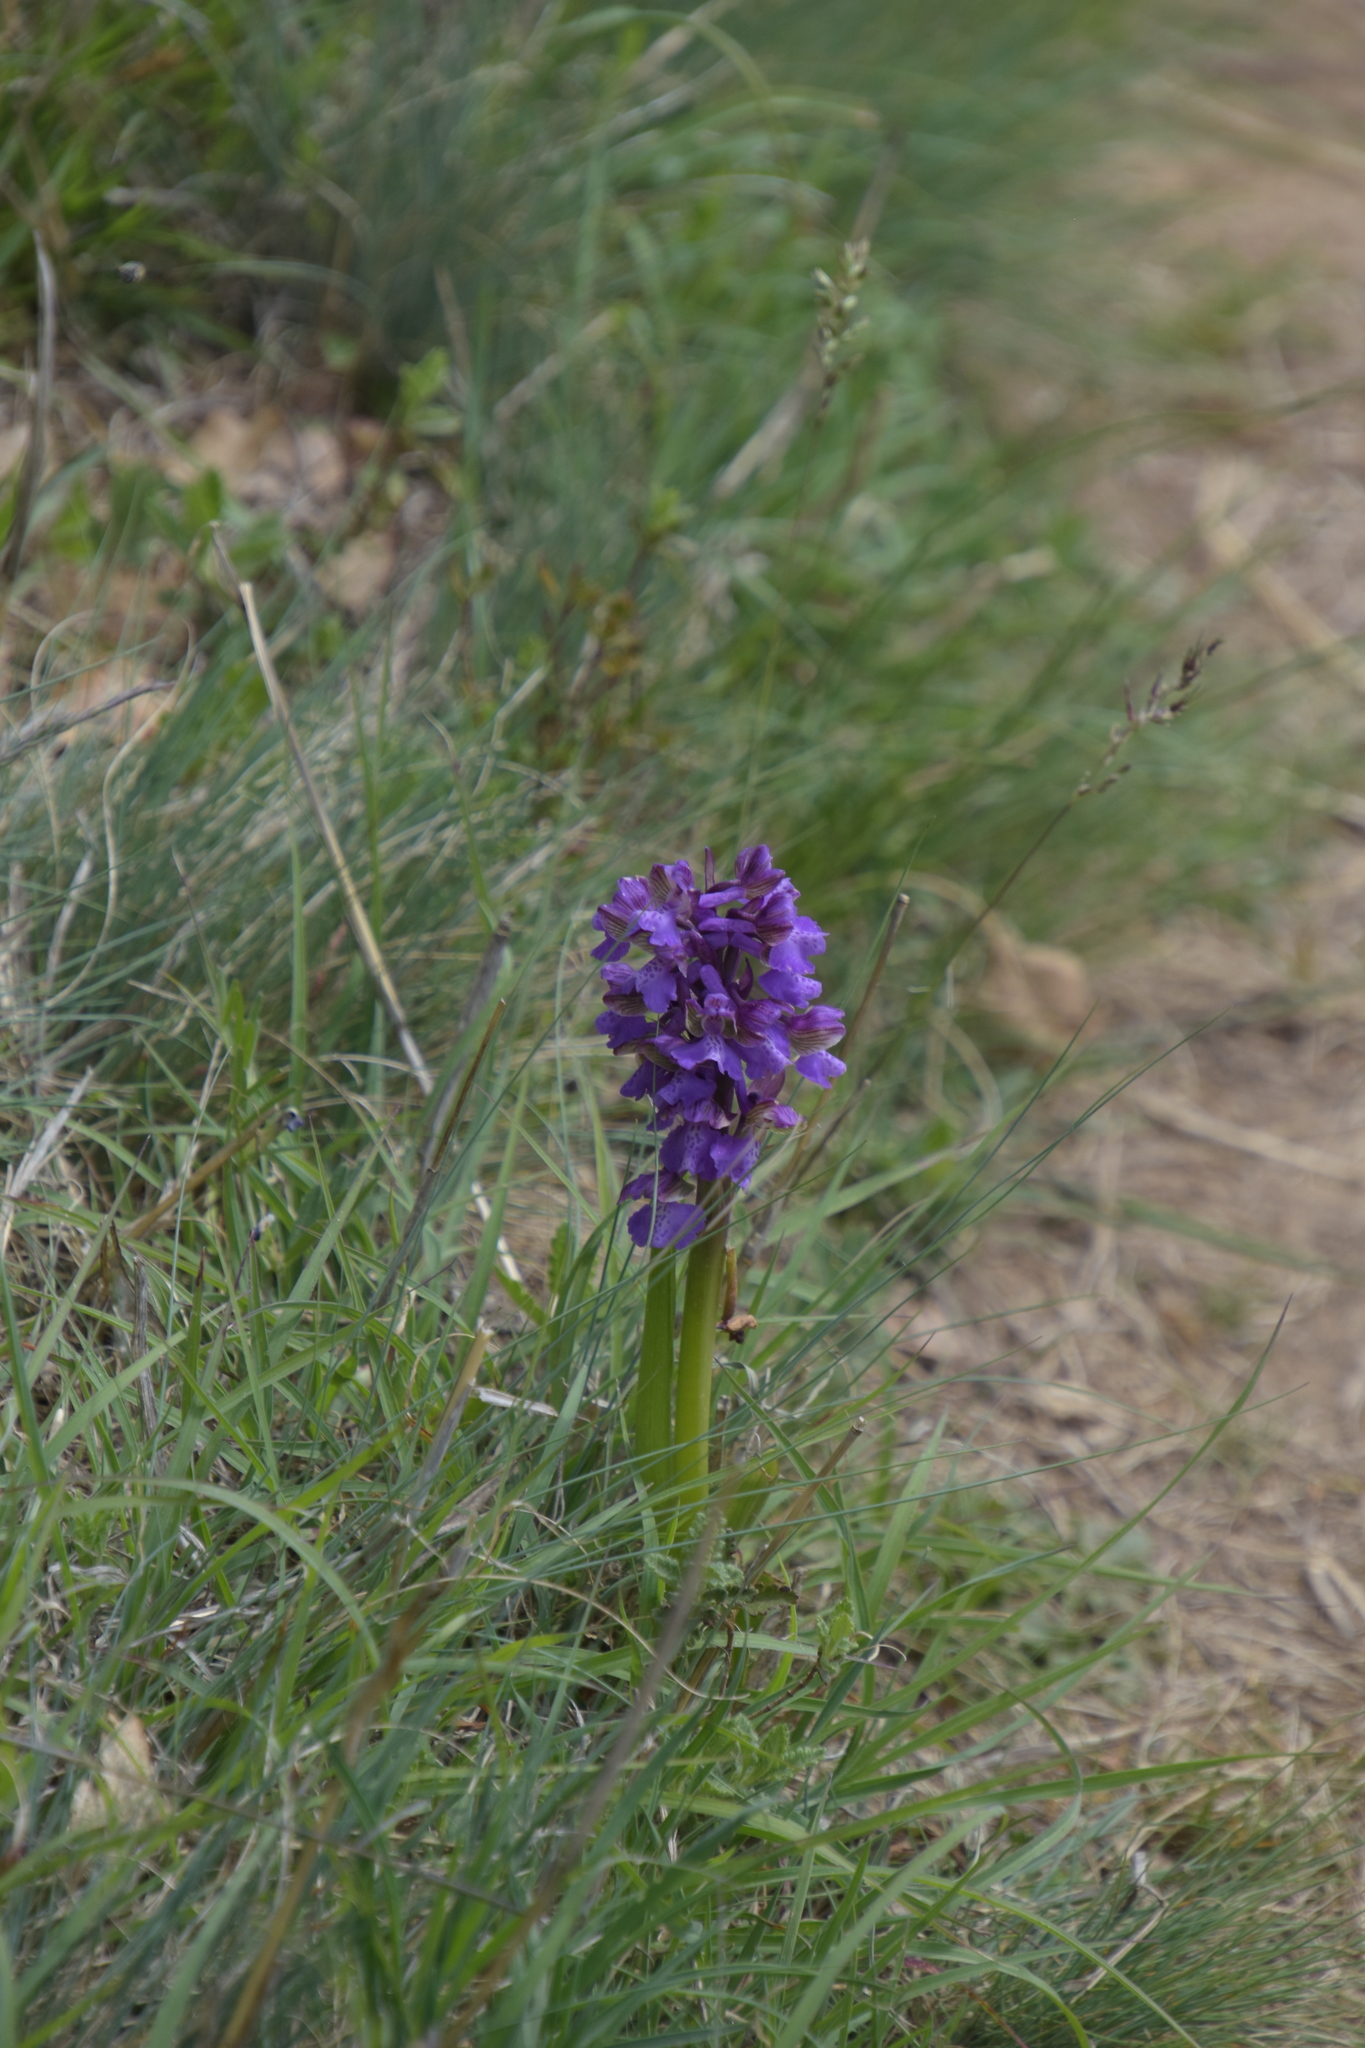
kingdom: Plantae
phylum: Tracheophyta
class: Liliopsida
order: Asparagales
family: Orchidaceae
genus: Anacamptis
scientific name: Anacamptis morio
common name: Green-winged orchid
